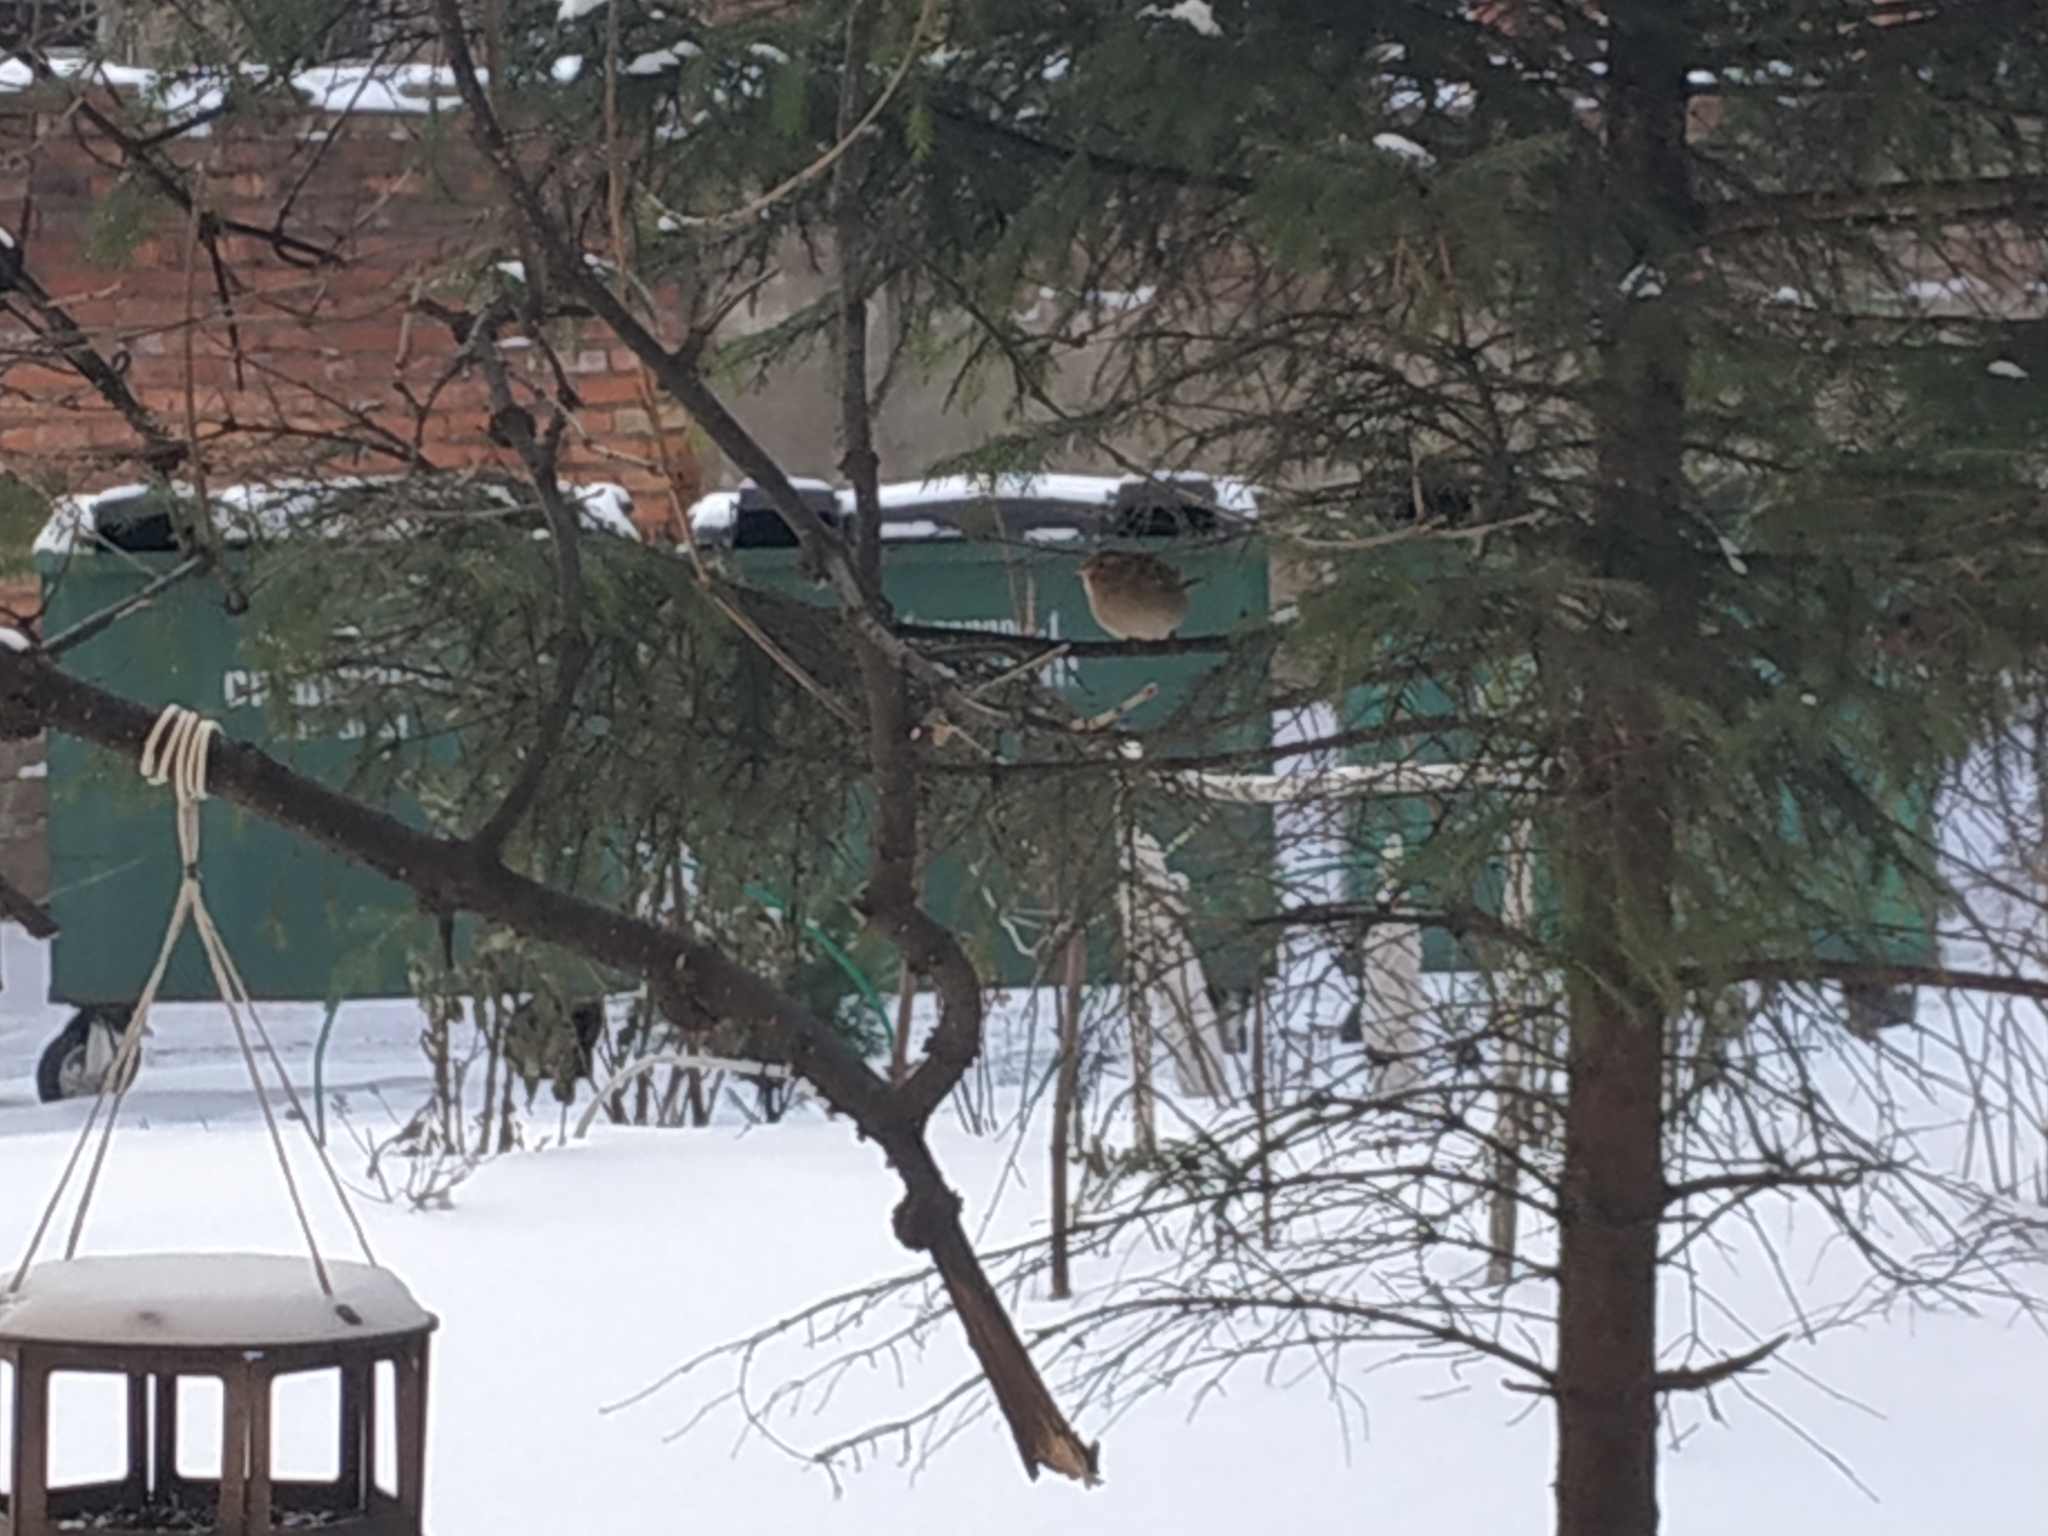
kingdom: Animalia
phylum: Chordata
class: Aves
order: Passeriformes
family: Passeridae
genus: Passer
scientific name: Passer domesticus
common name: House sparrow
